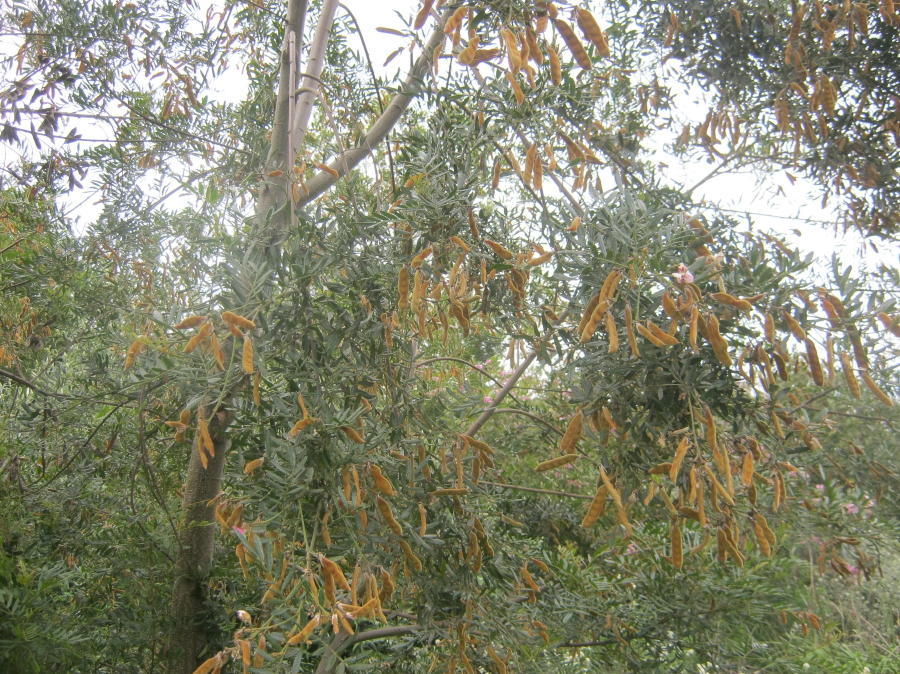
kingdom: Plantae
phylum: Tracheophyta
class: Magnoliopsida
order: Fabales
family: Fabaceae
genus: Virgilia
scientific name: Virgilia divaricata
